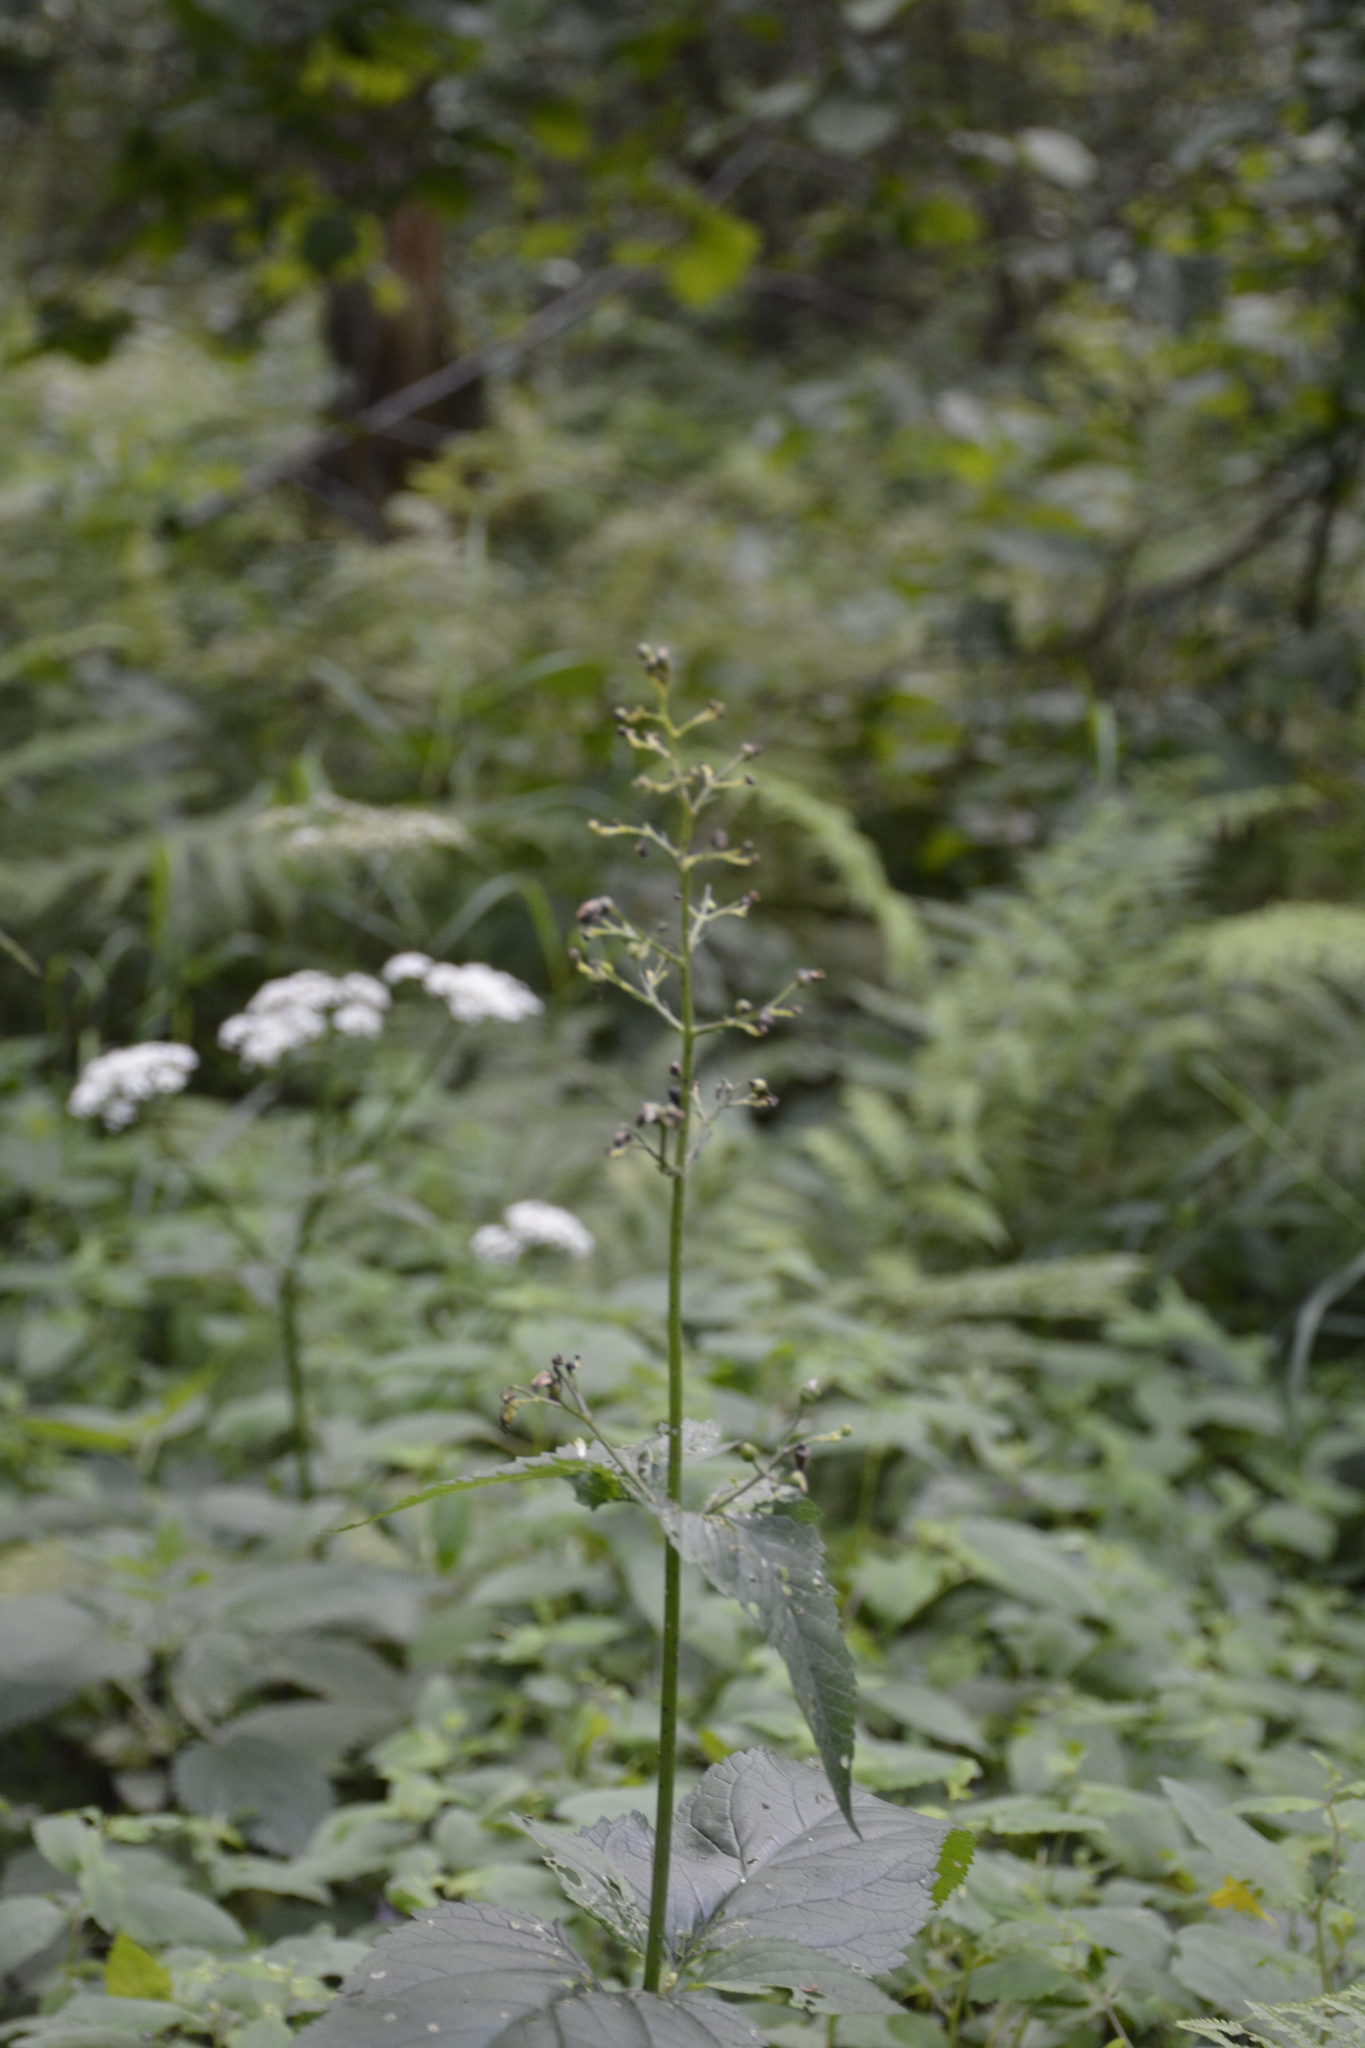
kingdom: Plantae
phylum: Tracheophyta
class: Magnoliopsida
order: Lamiales
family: Scrophulariaceae
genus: Scrophularia
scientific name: Scrophularia nodosa
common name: Common figwort
